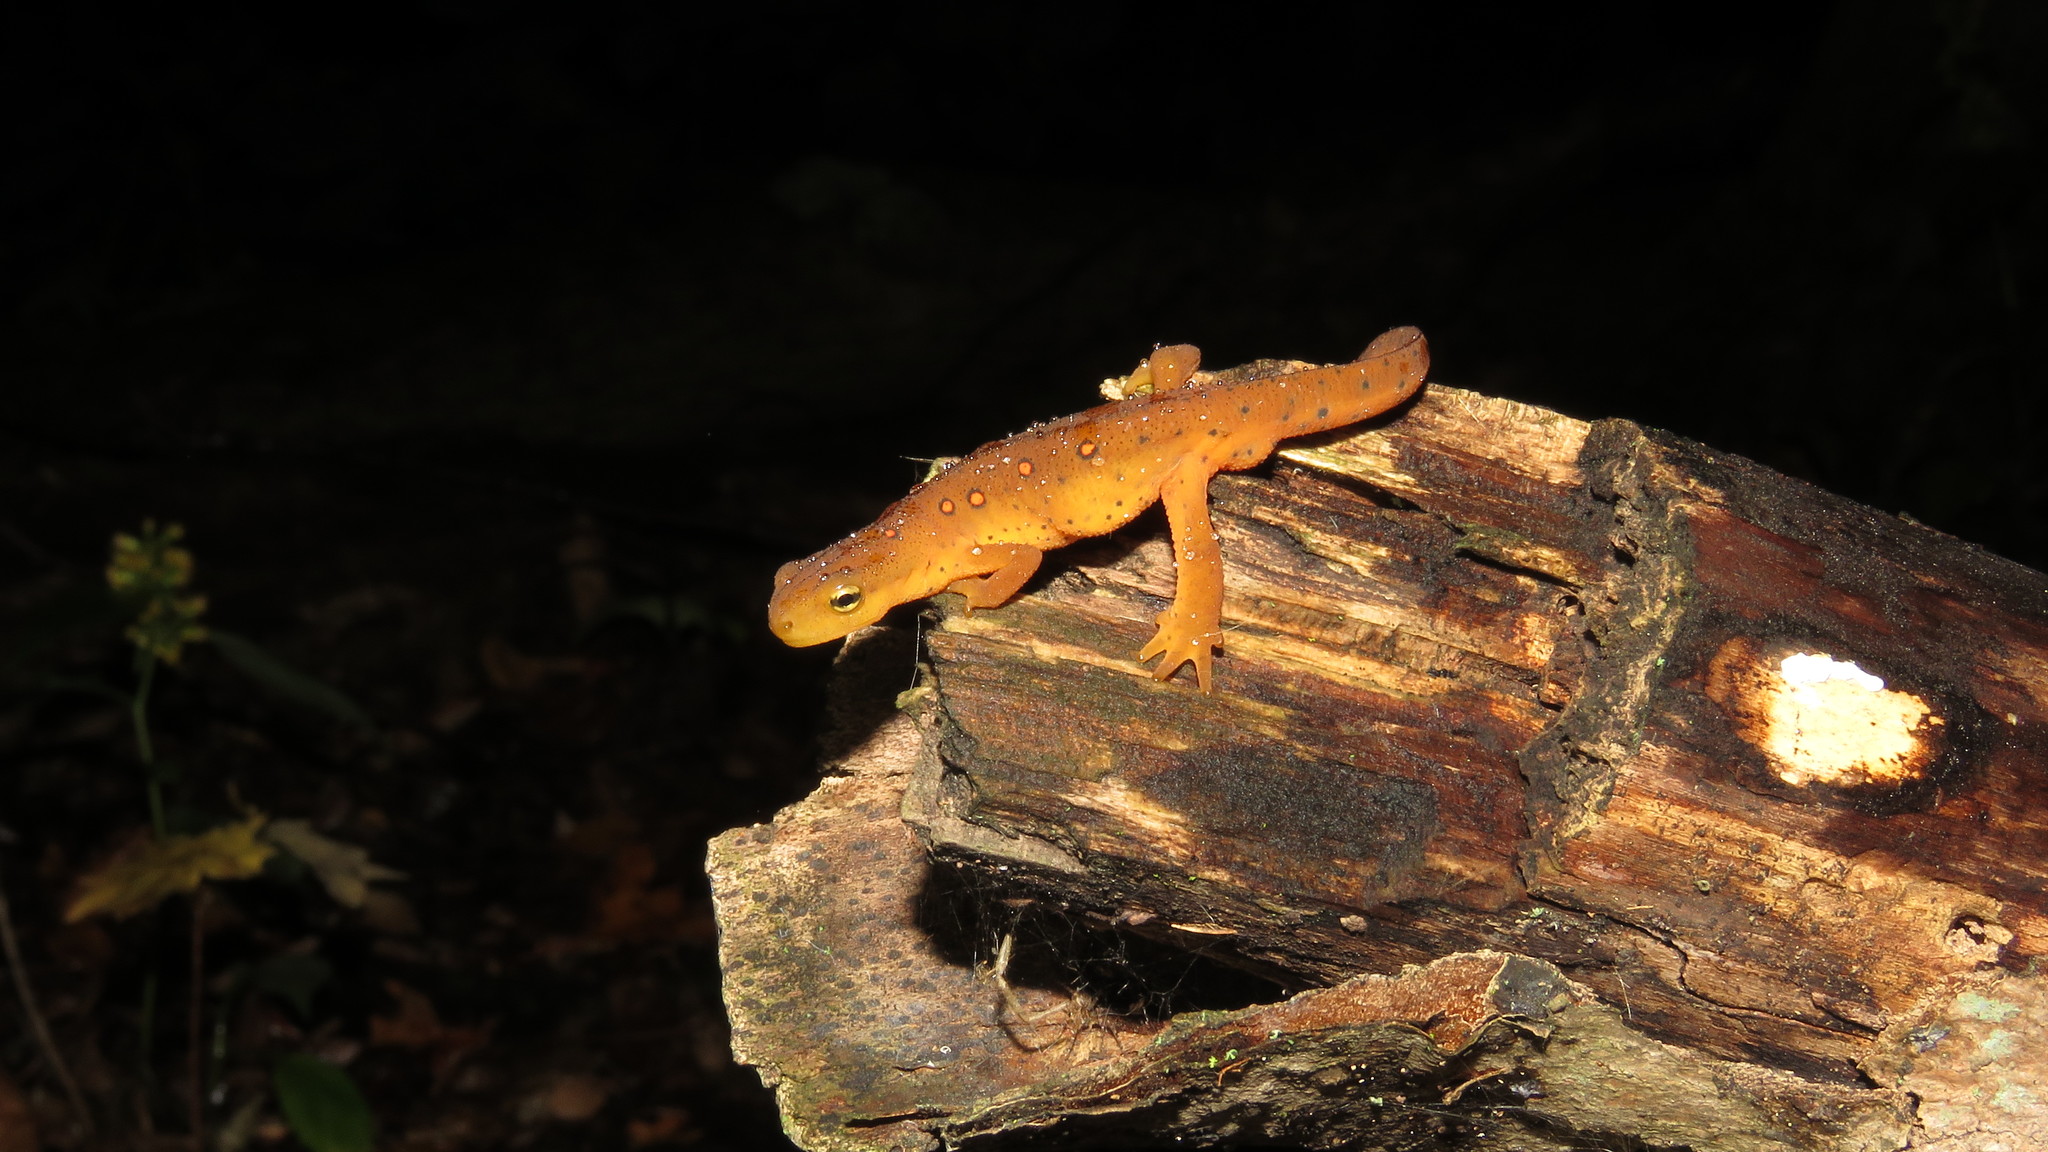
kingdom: Animalia
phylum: Chordata
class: Amphibia
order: Caudata
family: Salamandridae
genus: Notophthalmus
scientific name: Notophthalmus viridescens
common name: Eastern newt
